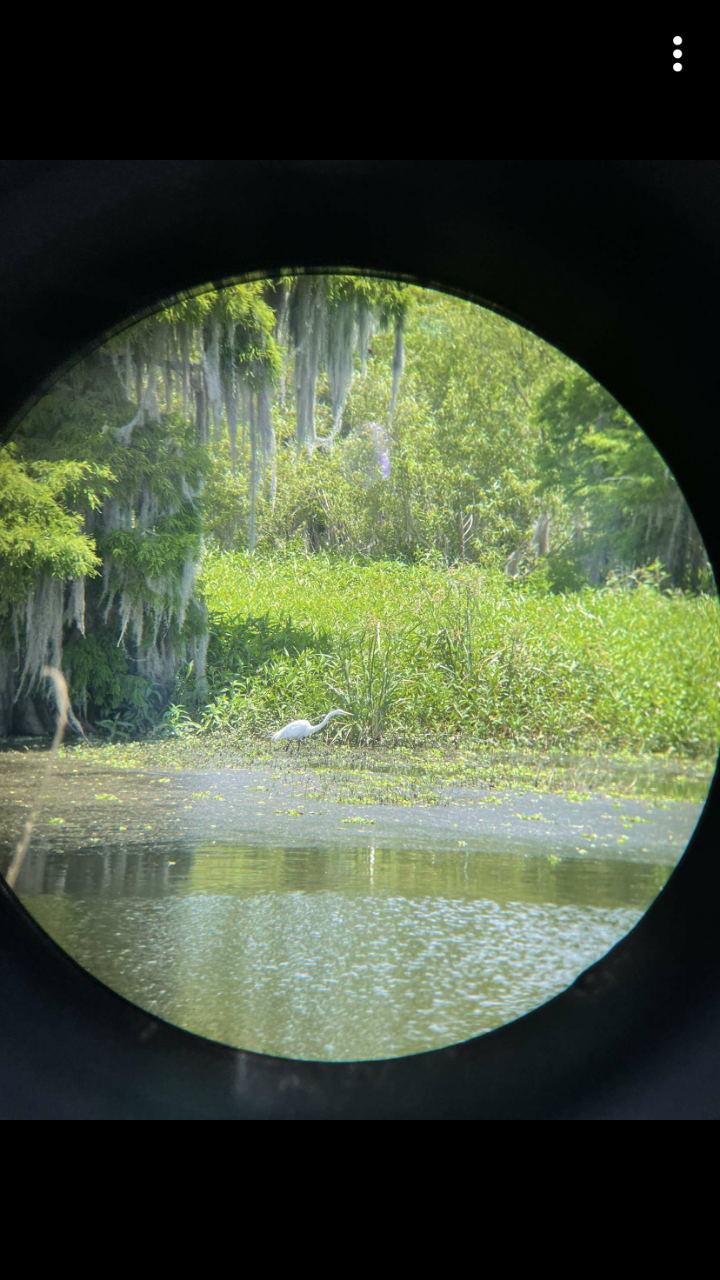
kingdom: Animalia
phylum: Chordata
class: Aves
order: Pelecaniformes
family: Ardeidae
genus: Ardea
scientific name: Ardea alba
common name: Great egret
